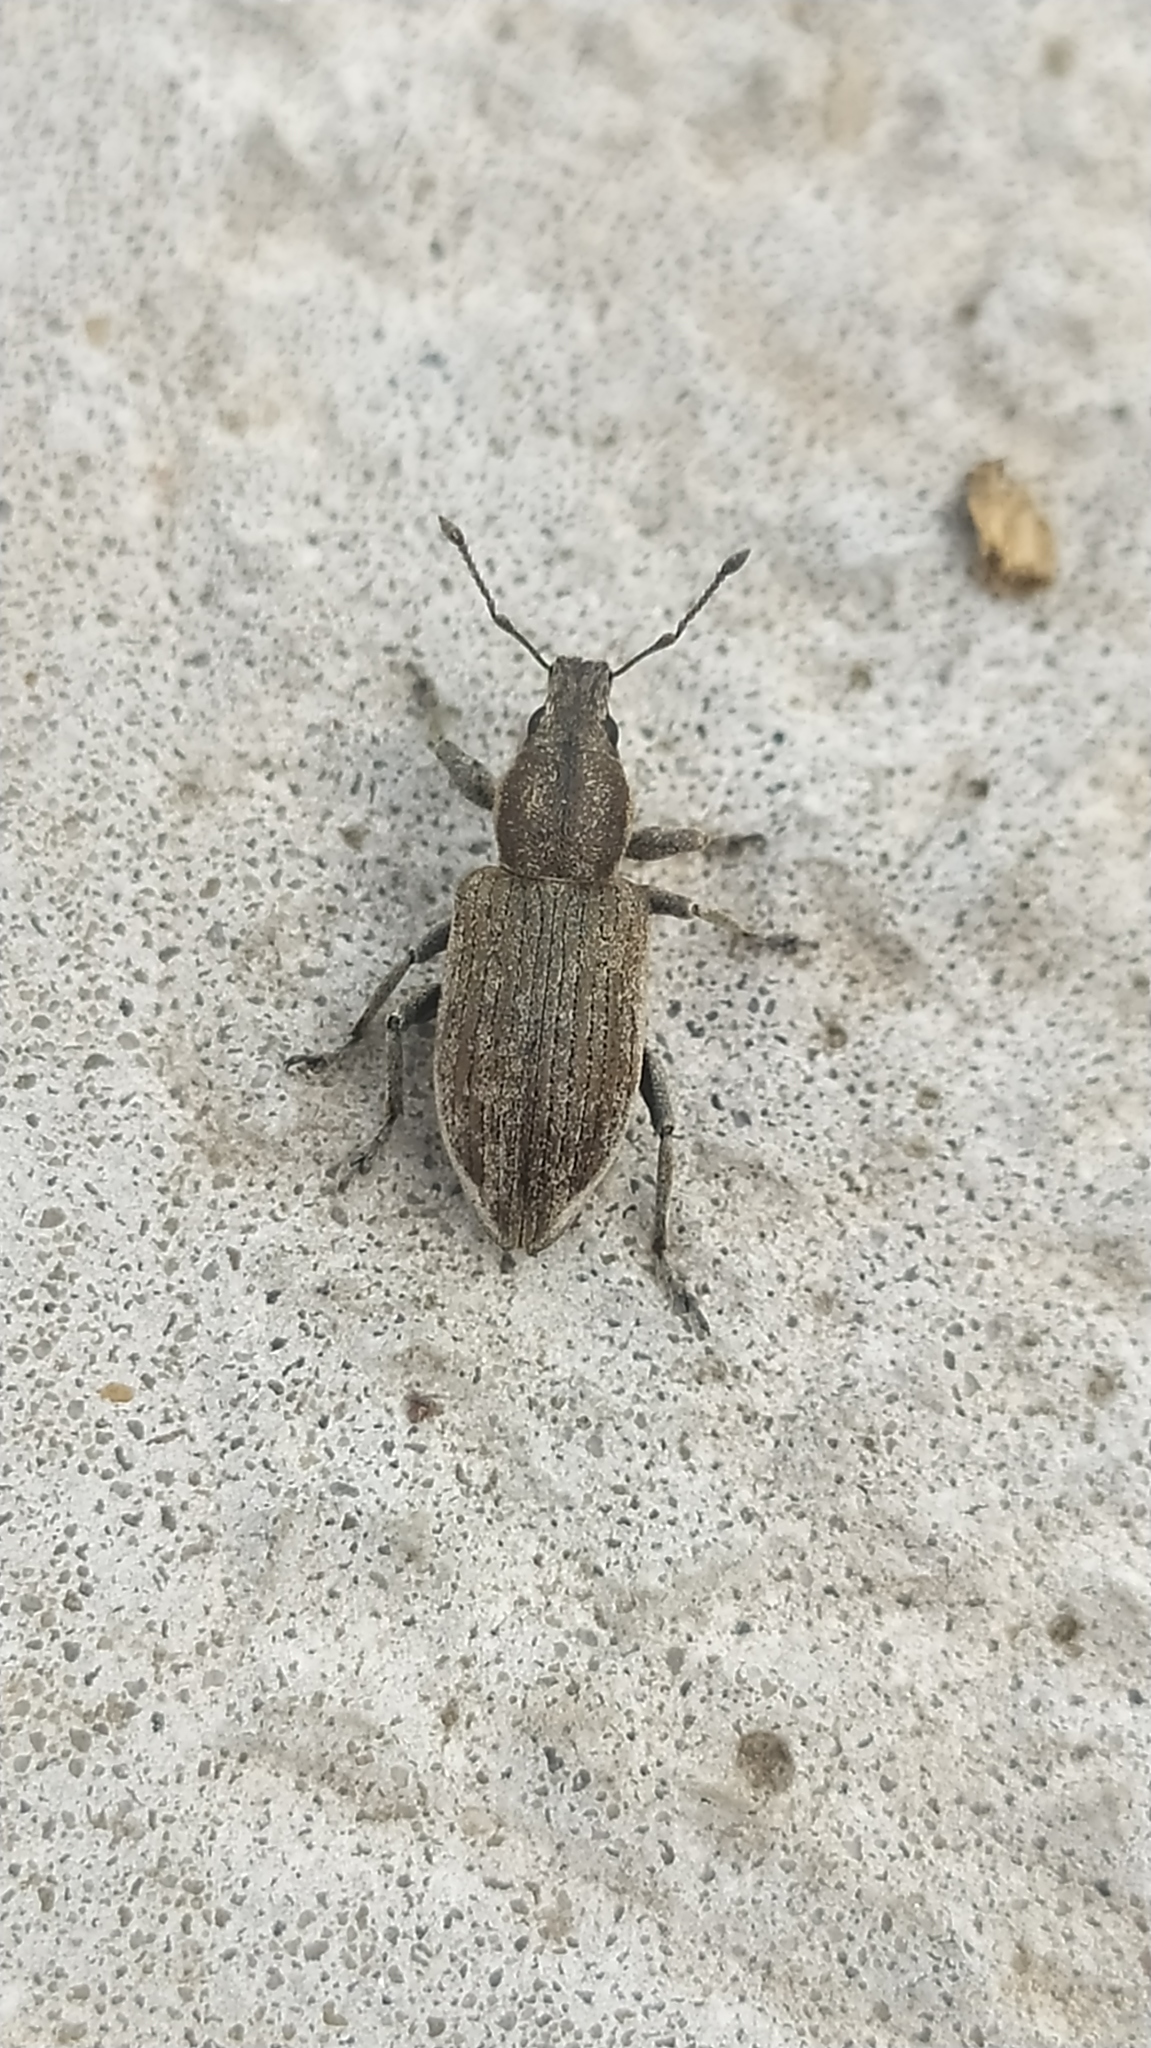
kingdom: Animalia
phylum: Arthropoda
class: Insecta
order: Coleoptera
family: Curculionidae
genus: Tanymecus
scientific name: Tanymecus palliatus
